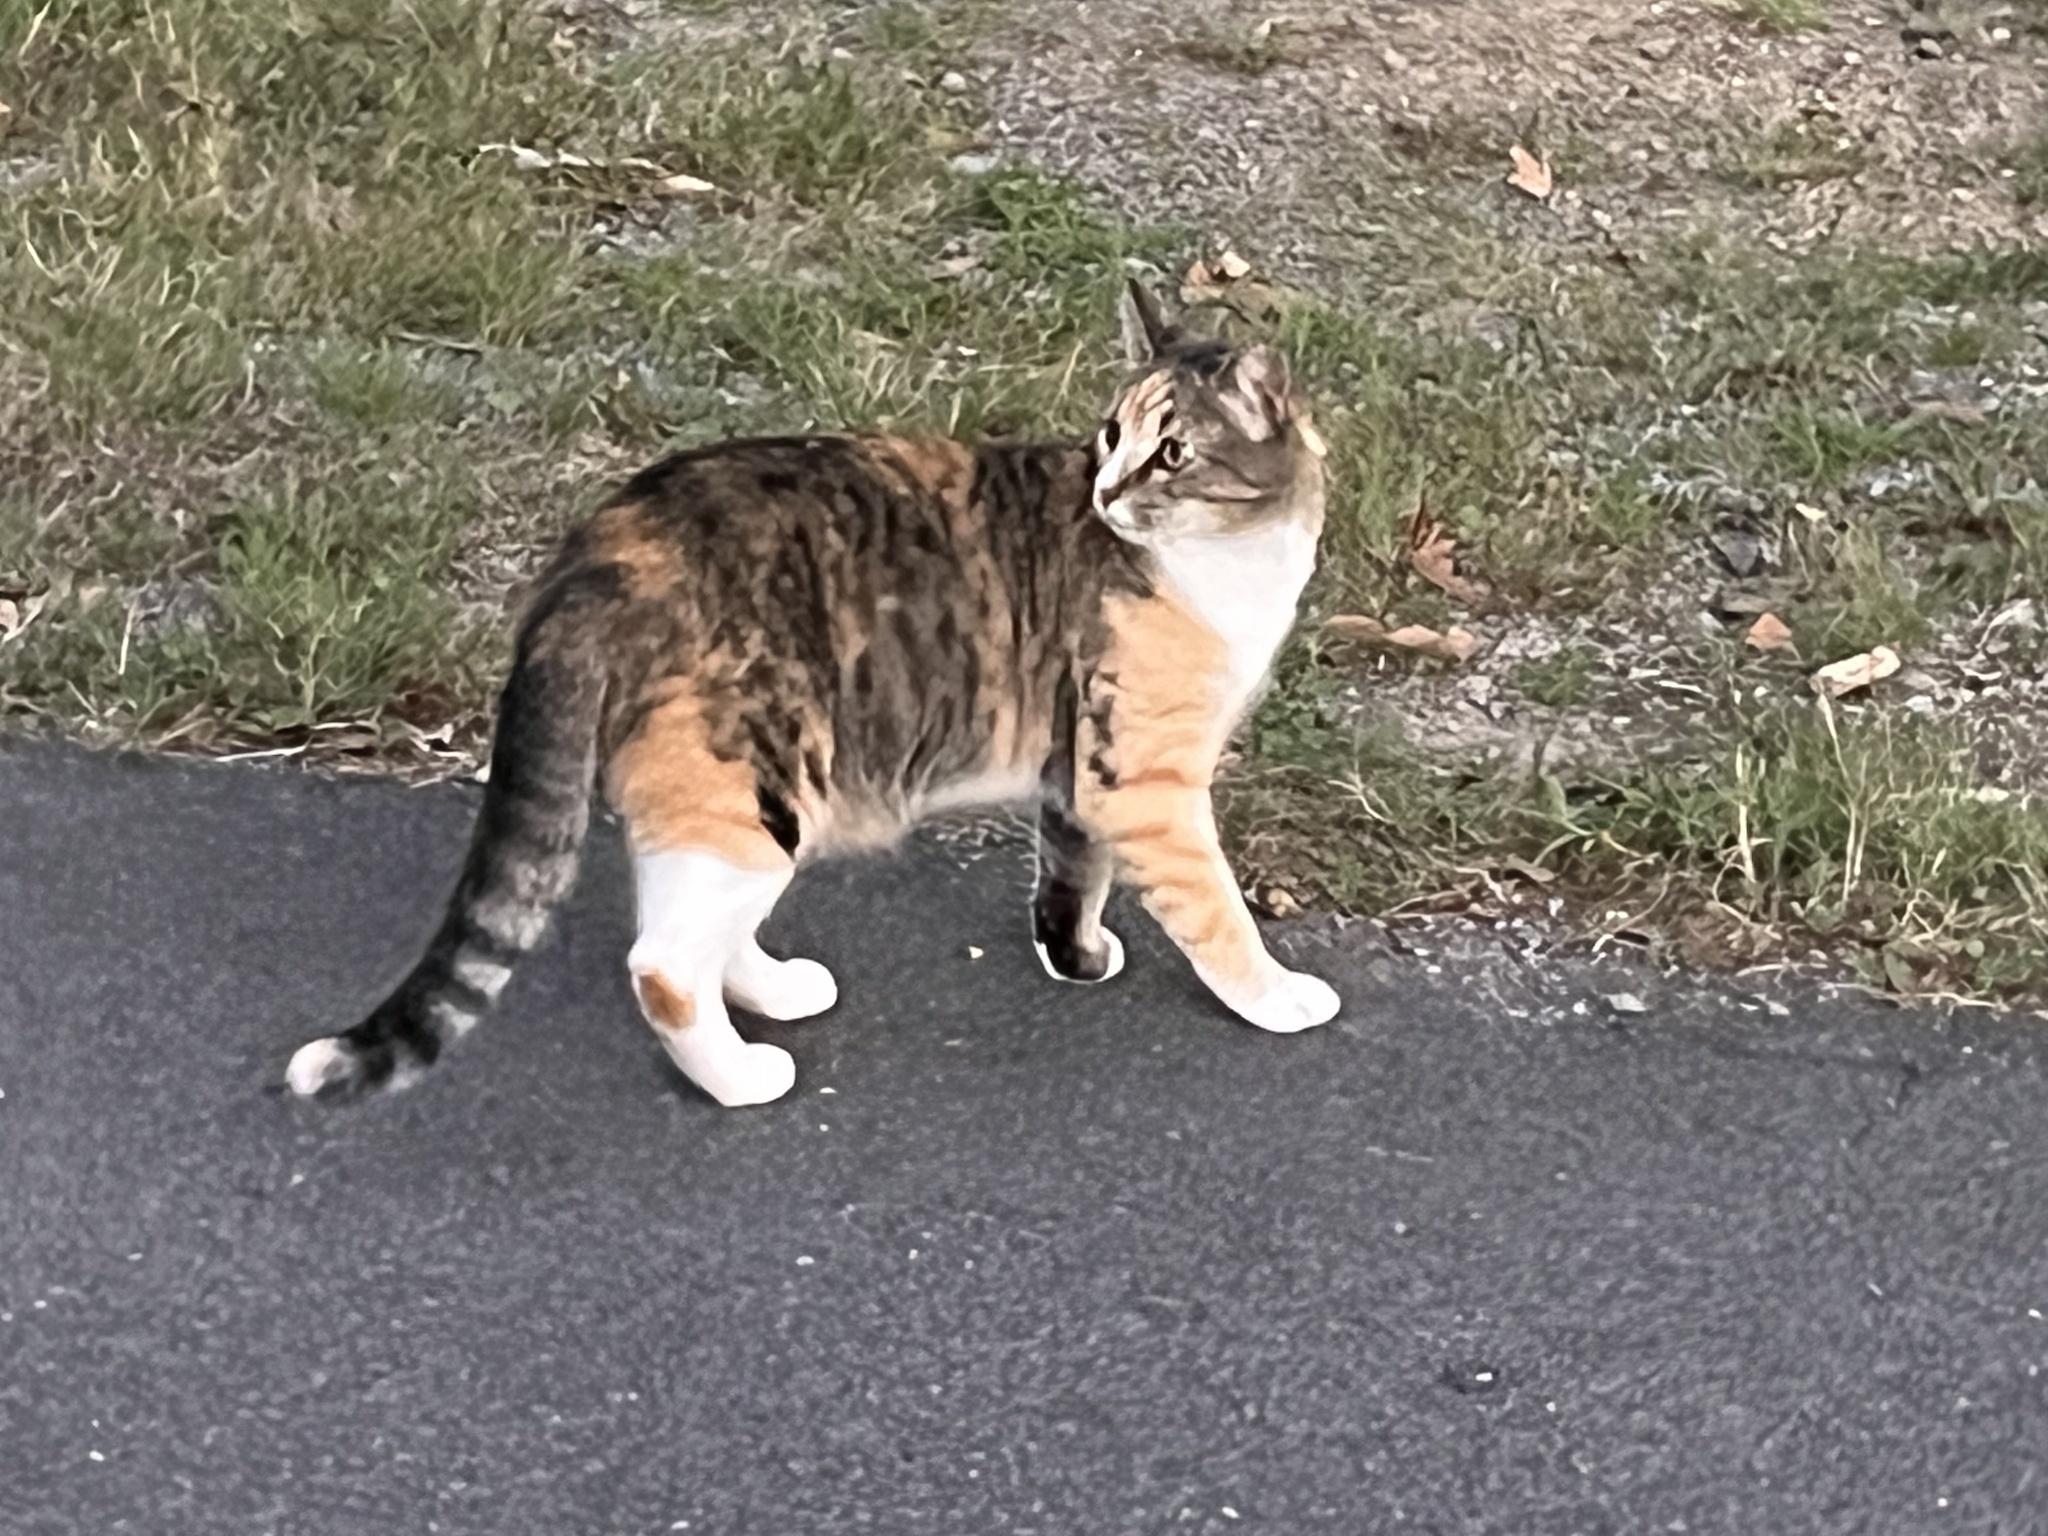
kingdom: Animalia
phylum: Chordata
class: Mammalia
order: Carnivora
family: Felidae
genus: Felis
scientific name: Felis catus
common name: Domestic cat
